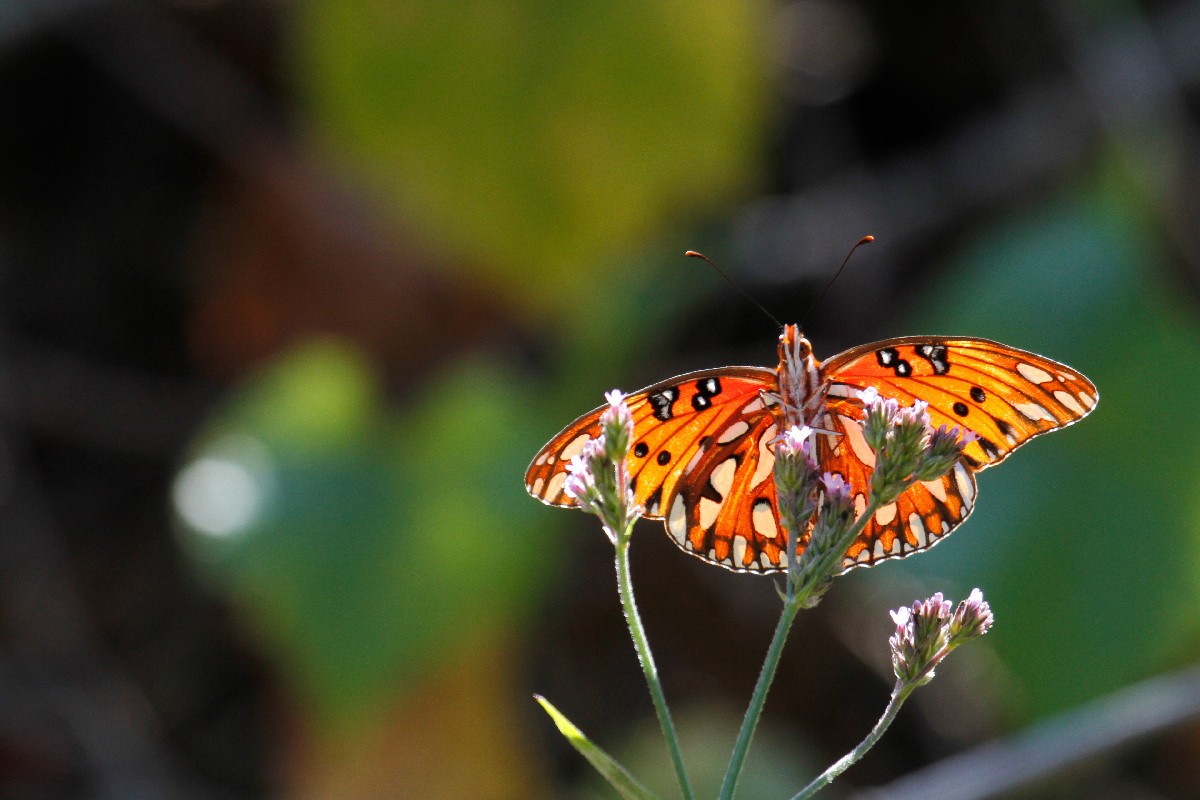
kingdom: Animalia
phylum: Arthropoda
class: Insecta
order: Lepidoptera
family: Nymphalidae
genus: Dione
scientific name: Dione vanillae
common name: Gulf fritillary
